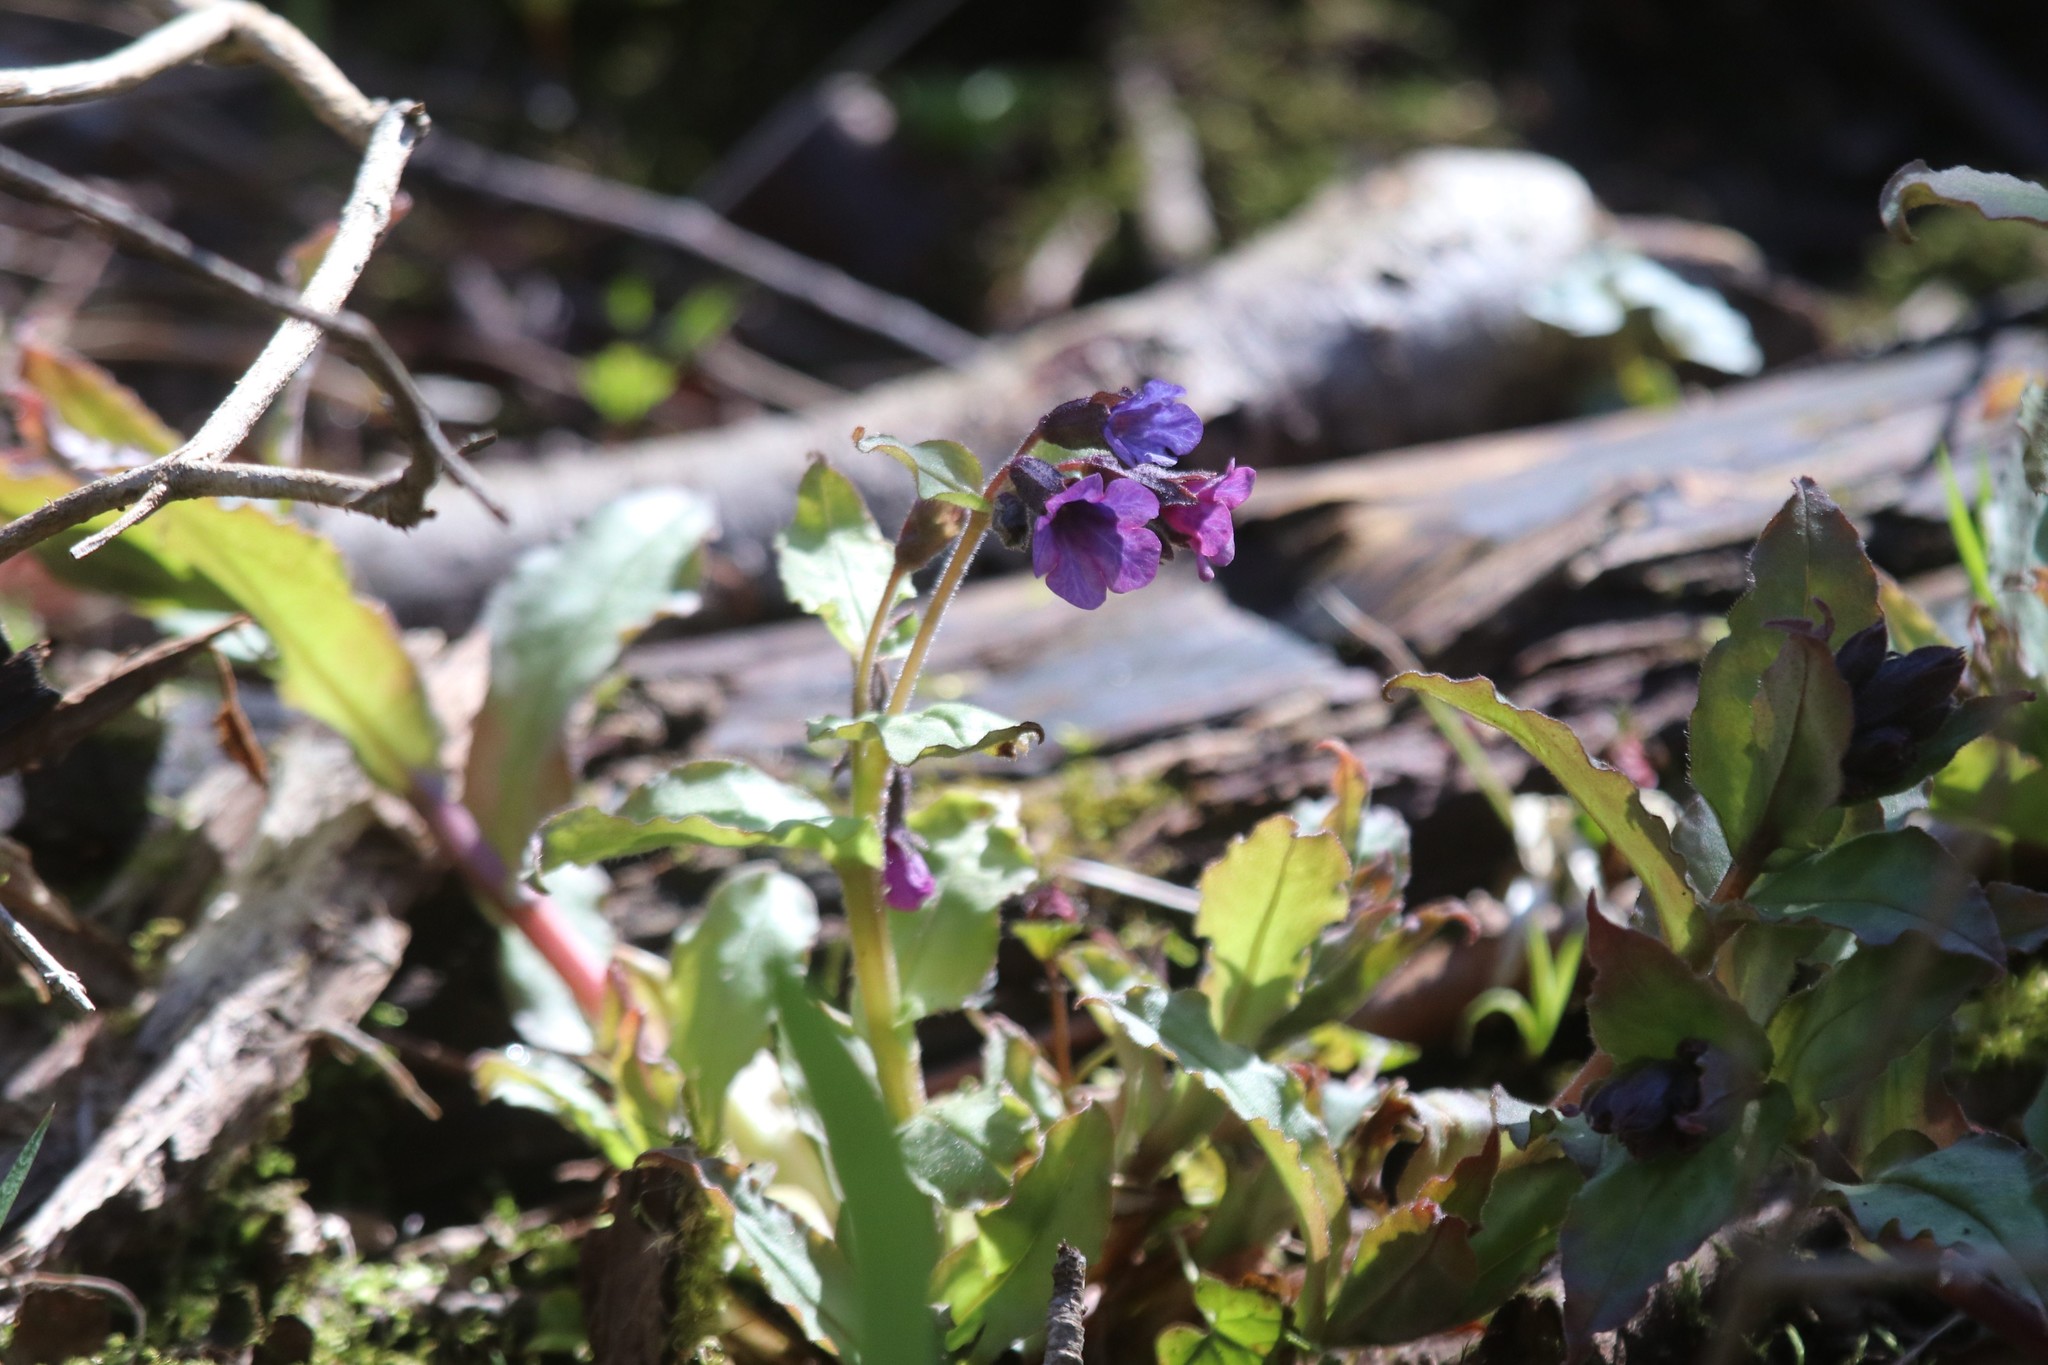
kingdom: Plantae
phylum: Tracheophyta
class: Magnoliopsida
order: Boraginales
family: Boraginaceae
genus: Pulmonaria
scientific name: Pulmonaria obscura
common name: Suffolk lungwort
